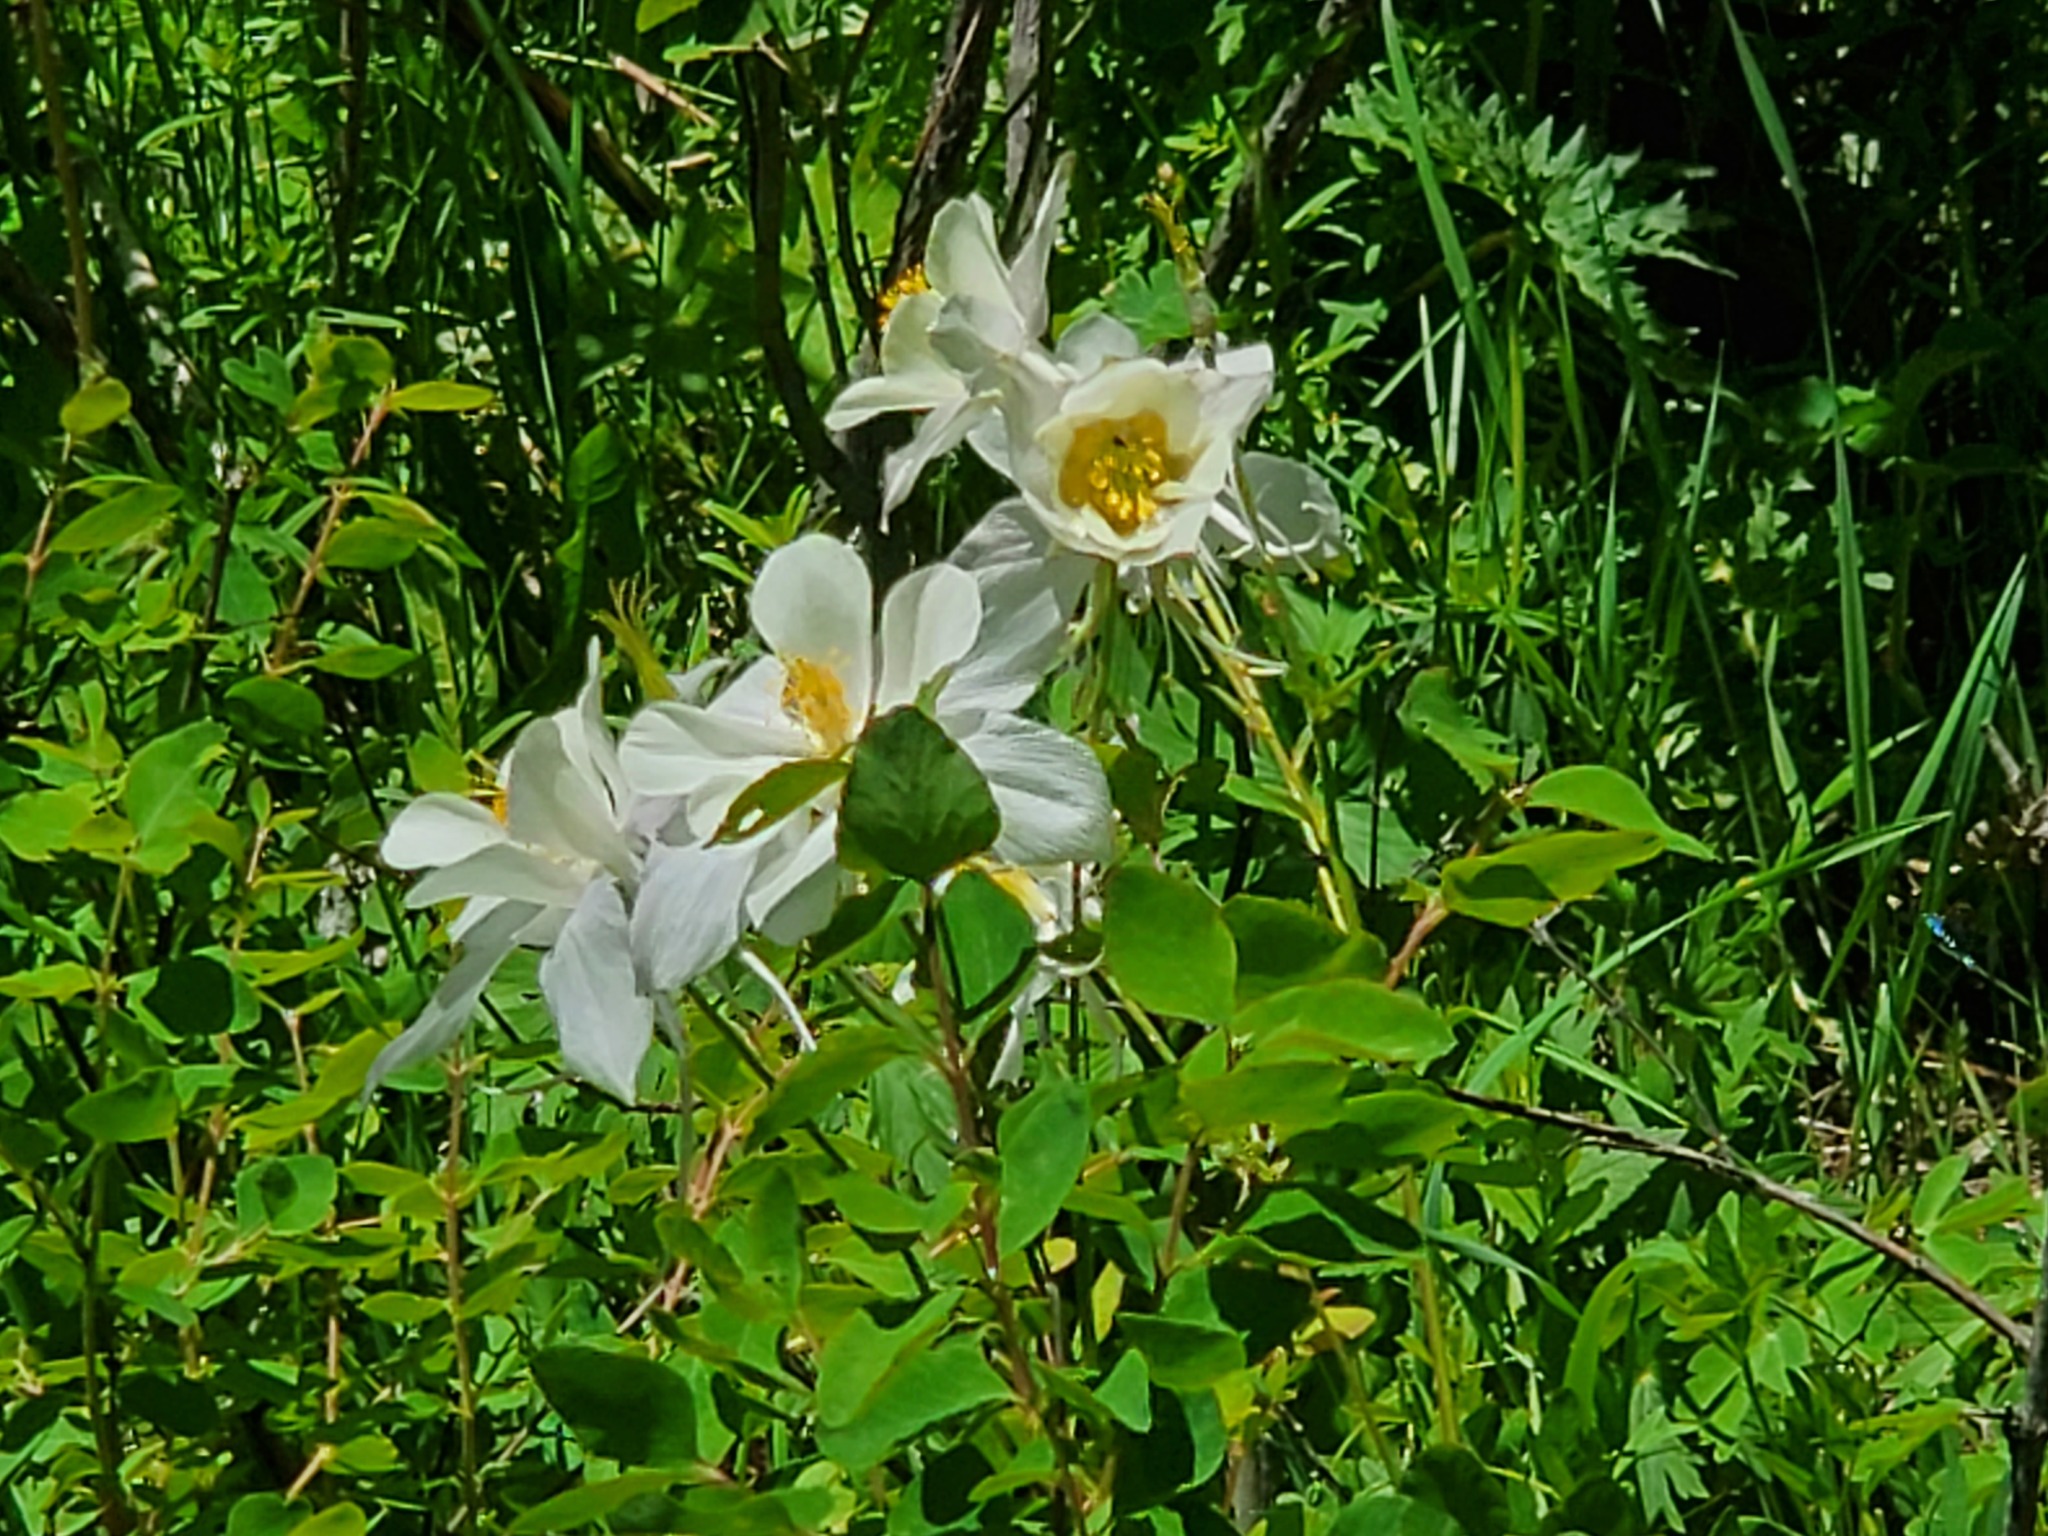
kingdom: Plantae
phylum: Tracheophyta
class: Magnoliopsida
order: Ranunculales
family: Ranunculaceae
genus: Aquilegia
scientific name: Aquilegia coerulea
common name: Rocky mountain columbine
